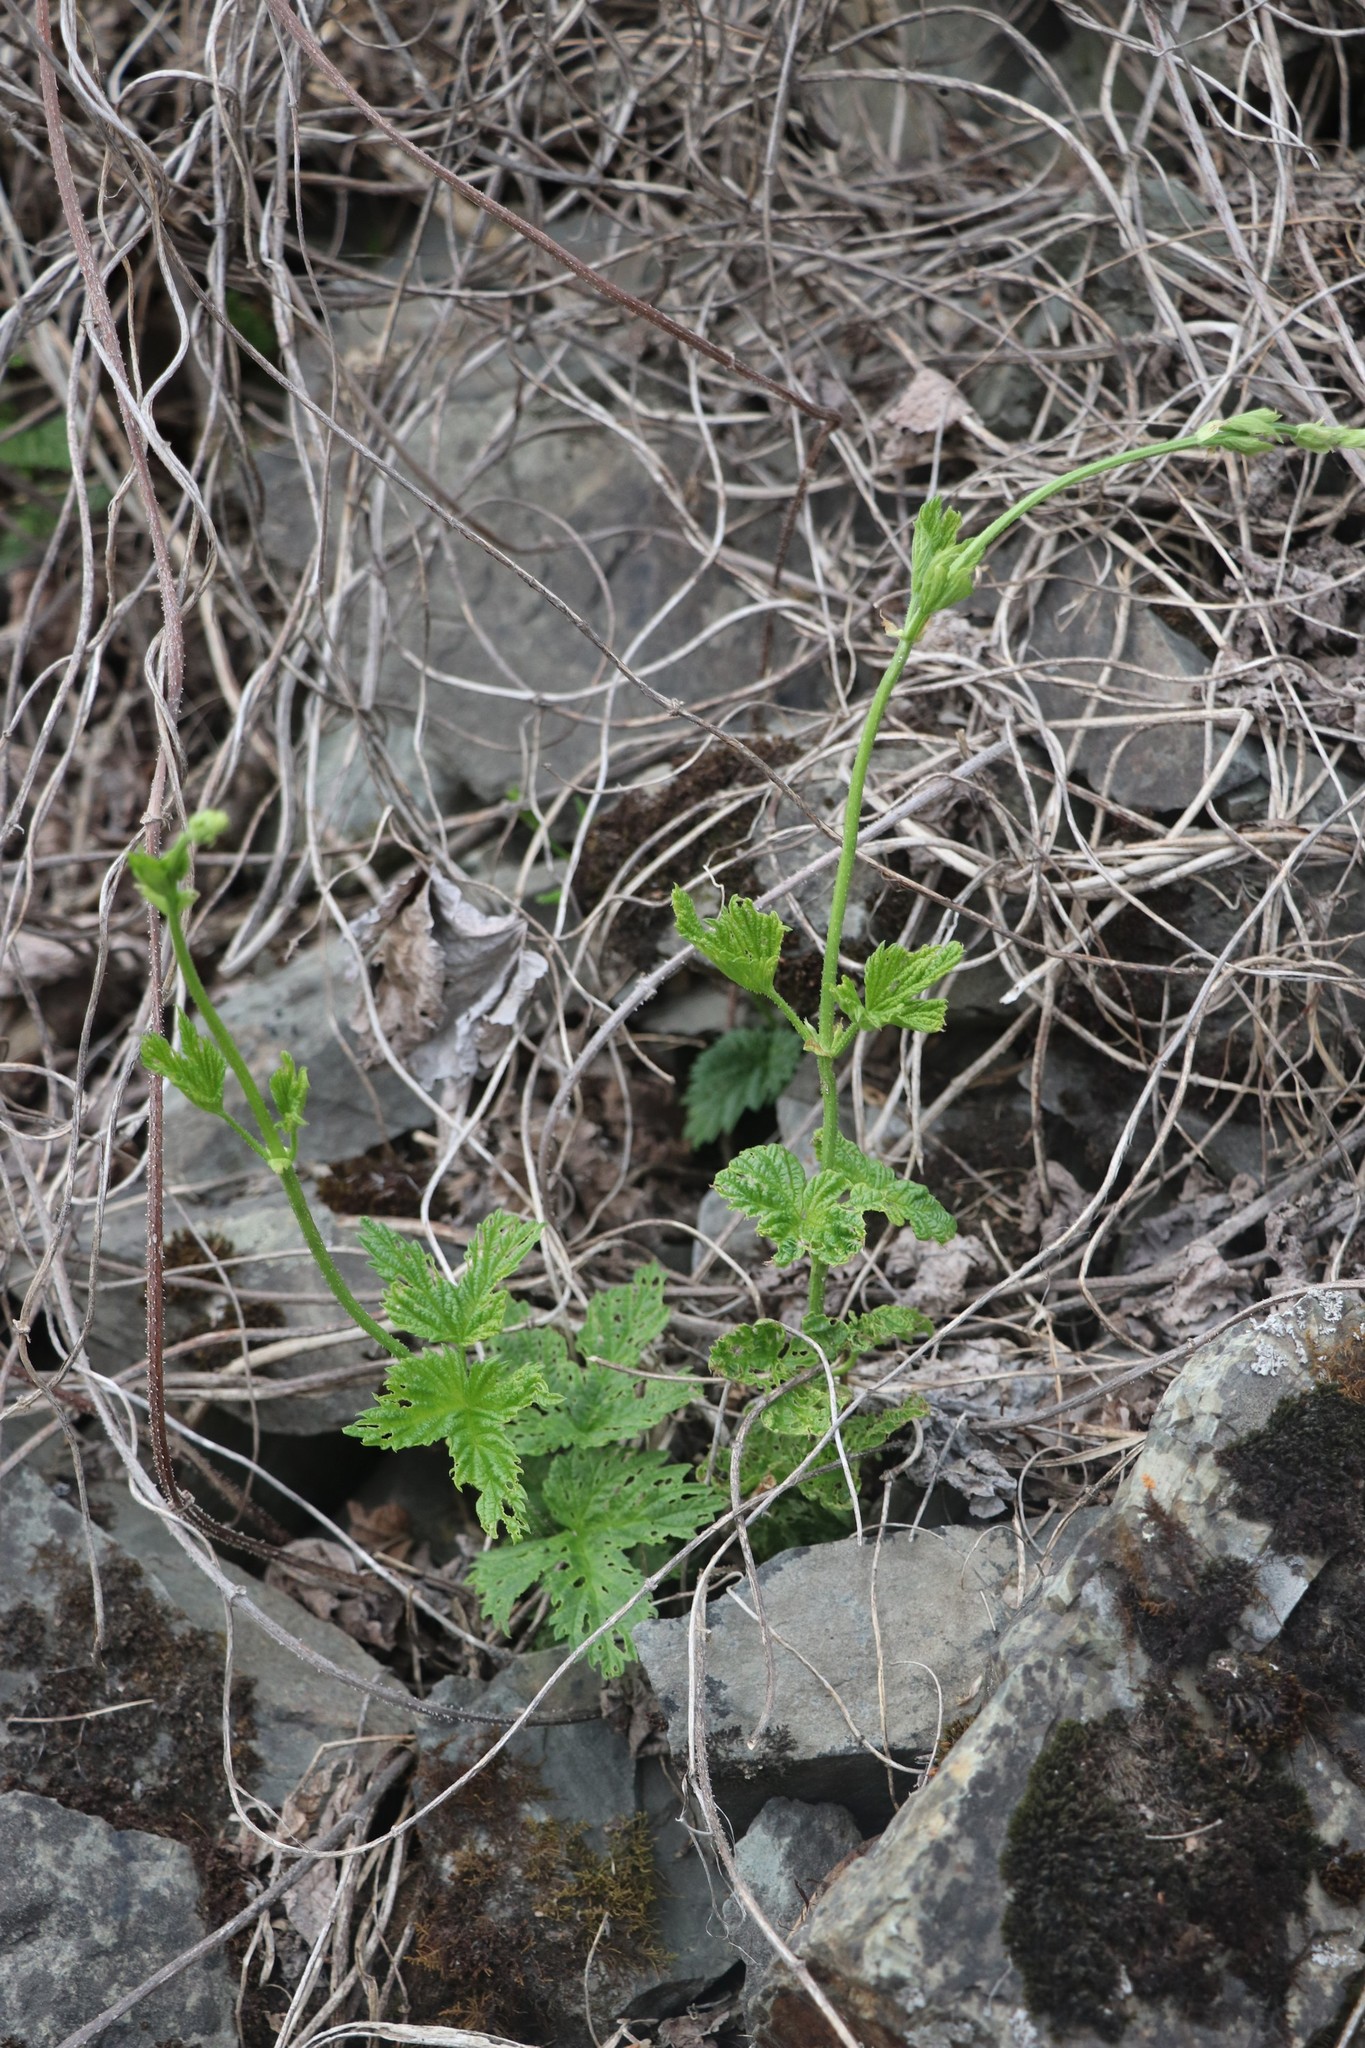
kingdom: Plantae
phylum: Tracheophyta
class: Magnoliopsida
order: Rosales
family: Cannabaceae
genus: Humulus
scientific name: Humulus lupulus
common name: Hop
